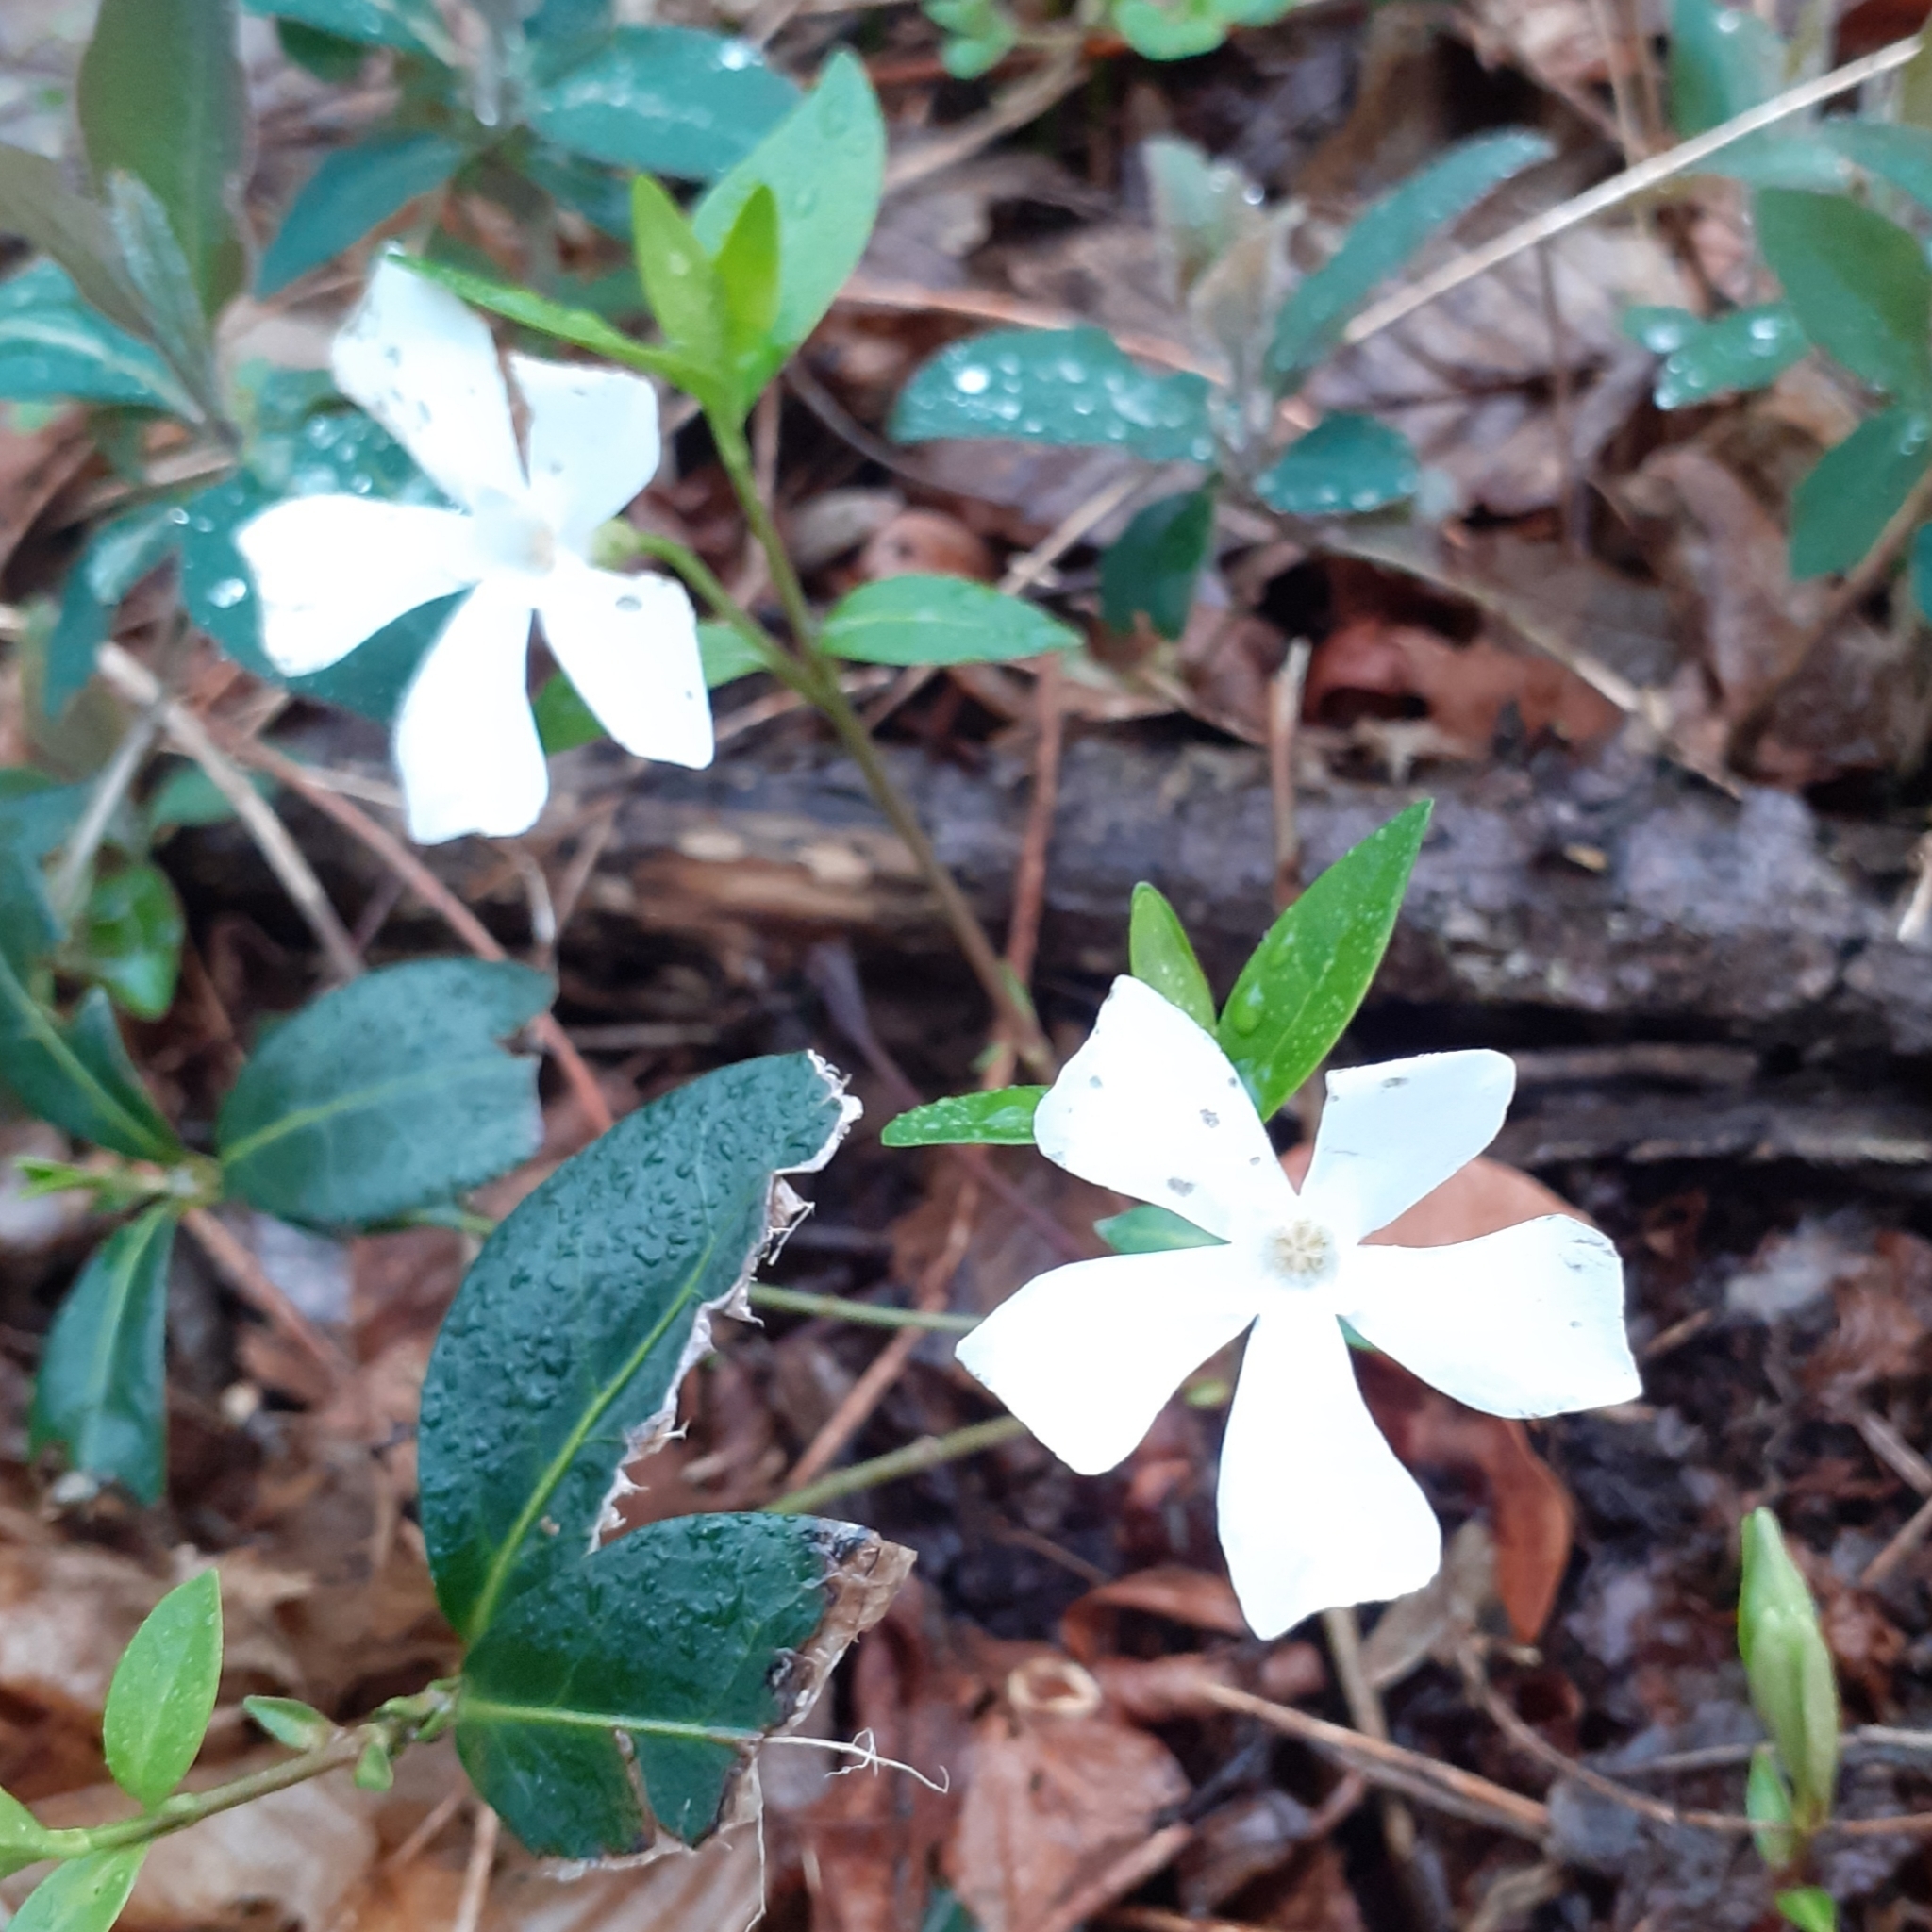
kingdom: Plantae
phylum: Tracheophyta
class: Magnoliopsida
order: Gentianales
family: Apocynaceae
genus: Vinca
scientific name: Vinca minor
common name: Lesser periwinkle
